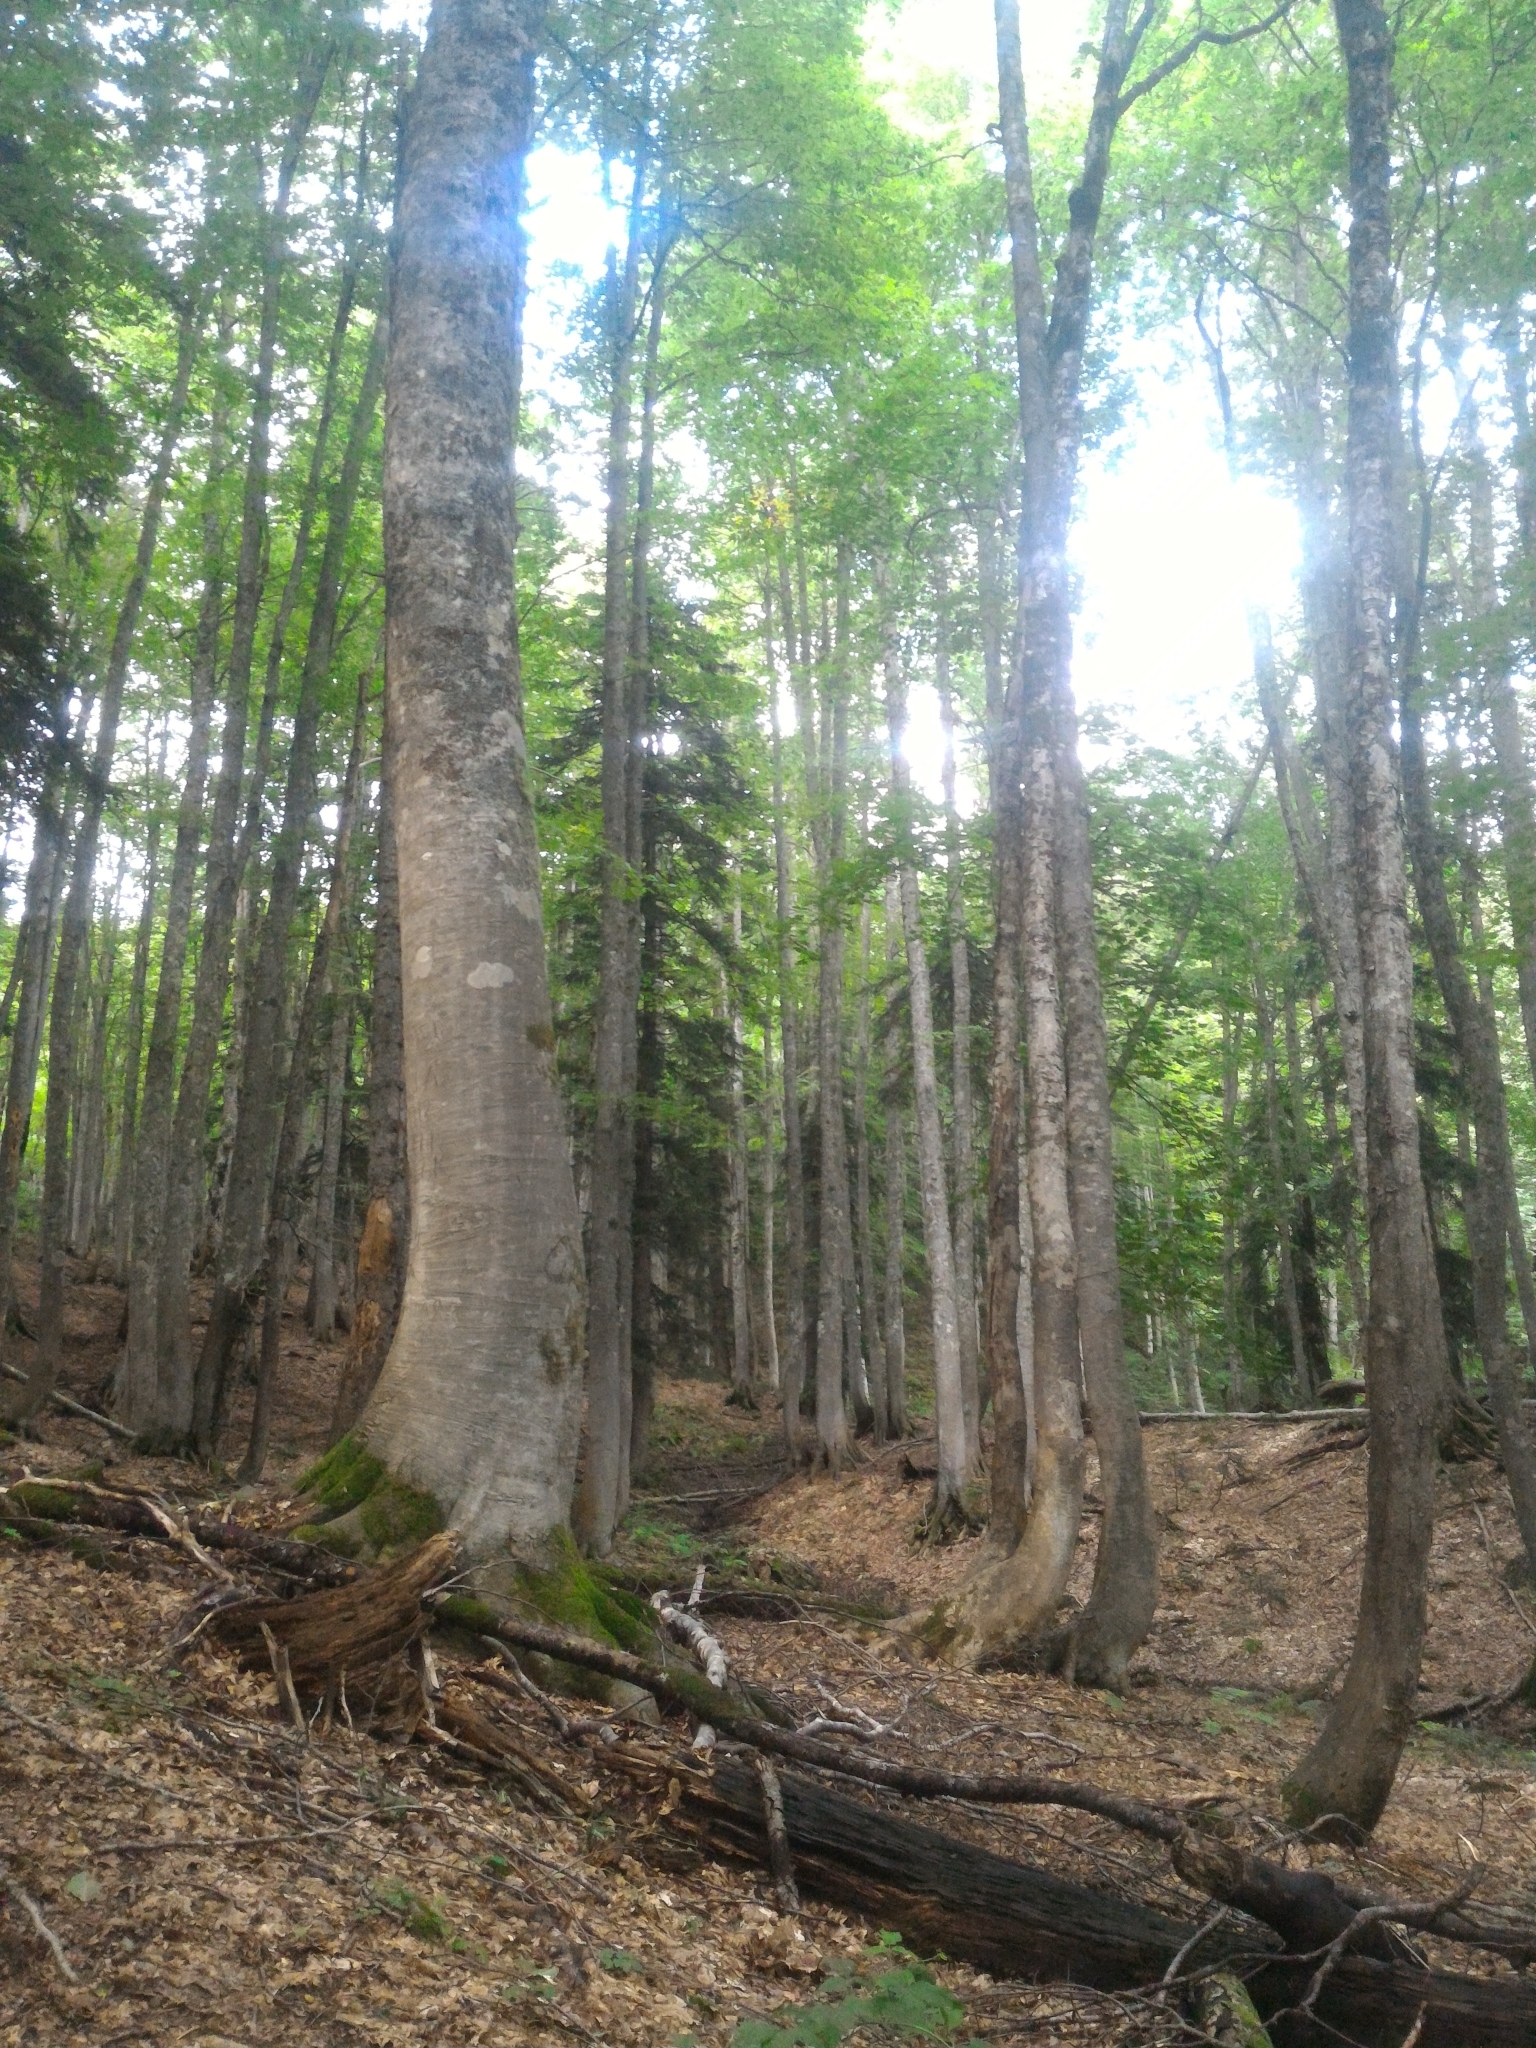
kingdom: Plantae
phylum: Tracheophyta
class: Magnoliopsida
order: Fagales
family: Fagaceae
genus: Fagus
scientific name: Fagus orientalis
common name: Oriental beech
